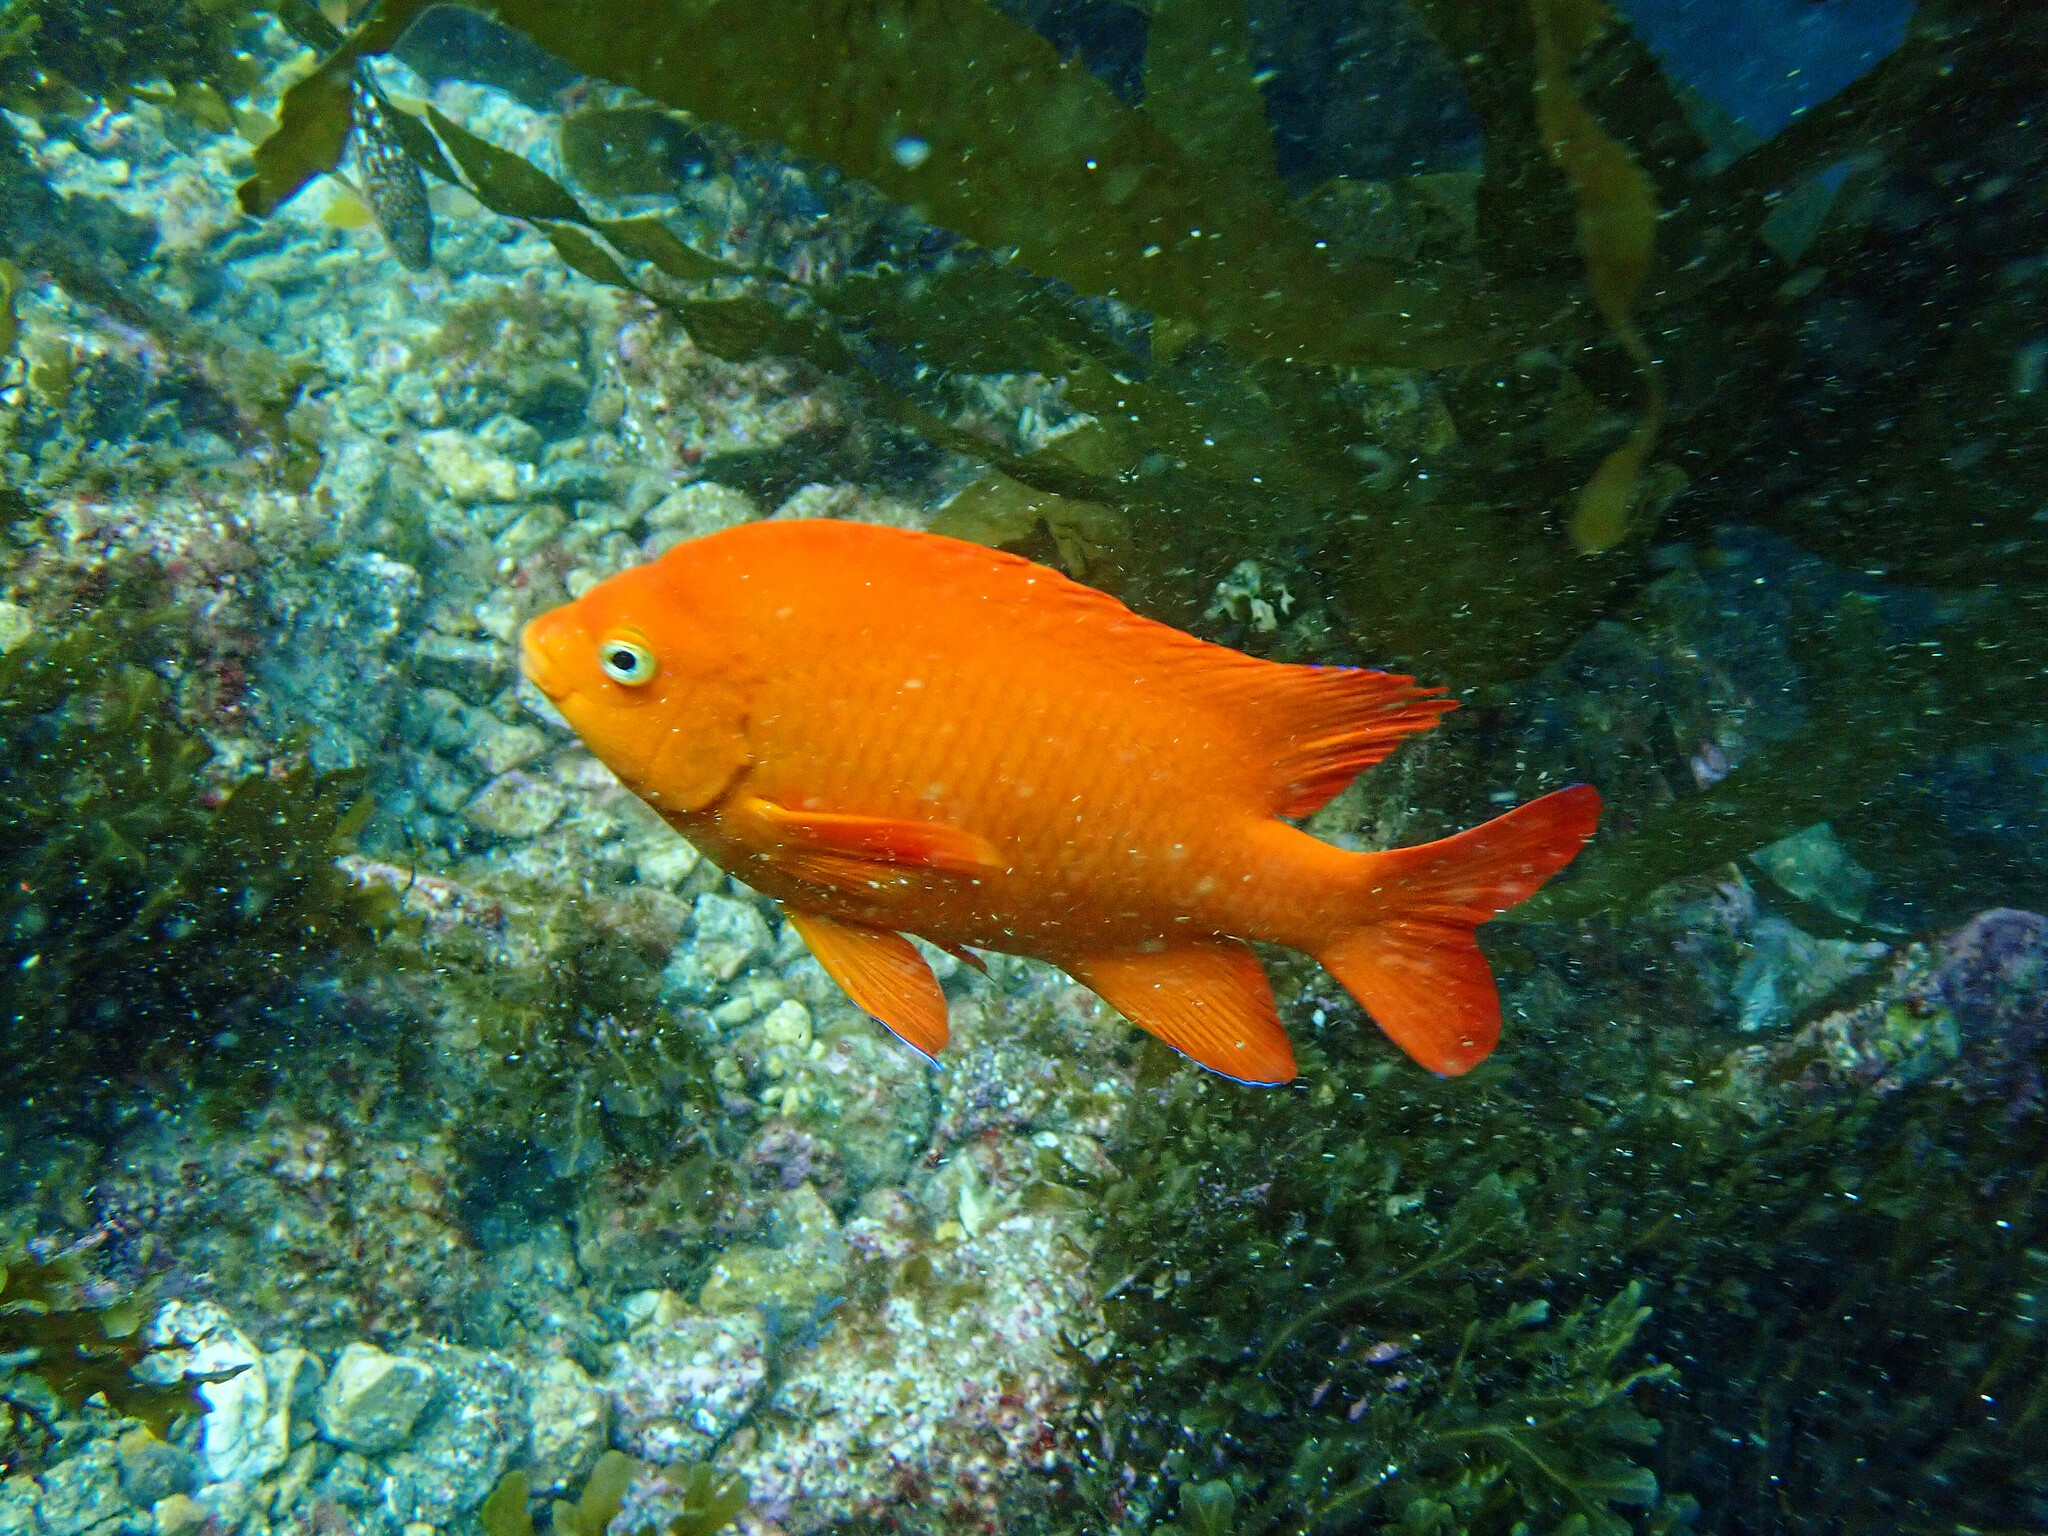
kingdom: Animalia
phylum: Chordata
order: Perciformes
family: Pomacentridae
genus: Hypsypops
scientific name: Hypsypops rubicundus
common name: Garibaldi
